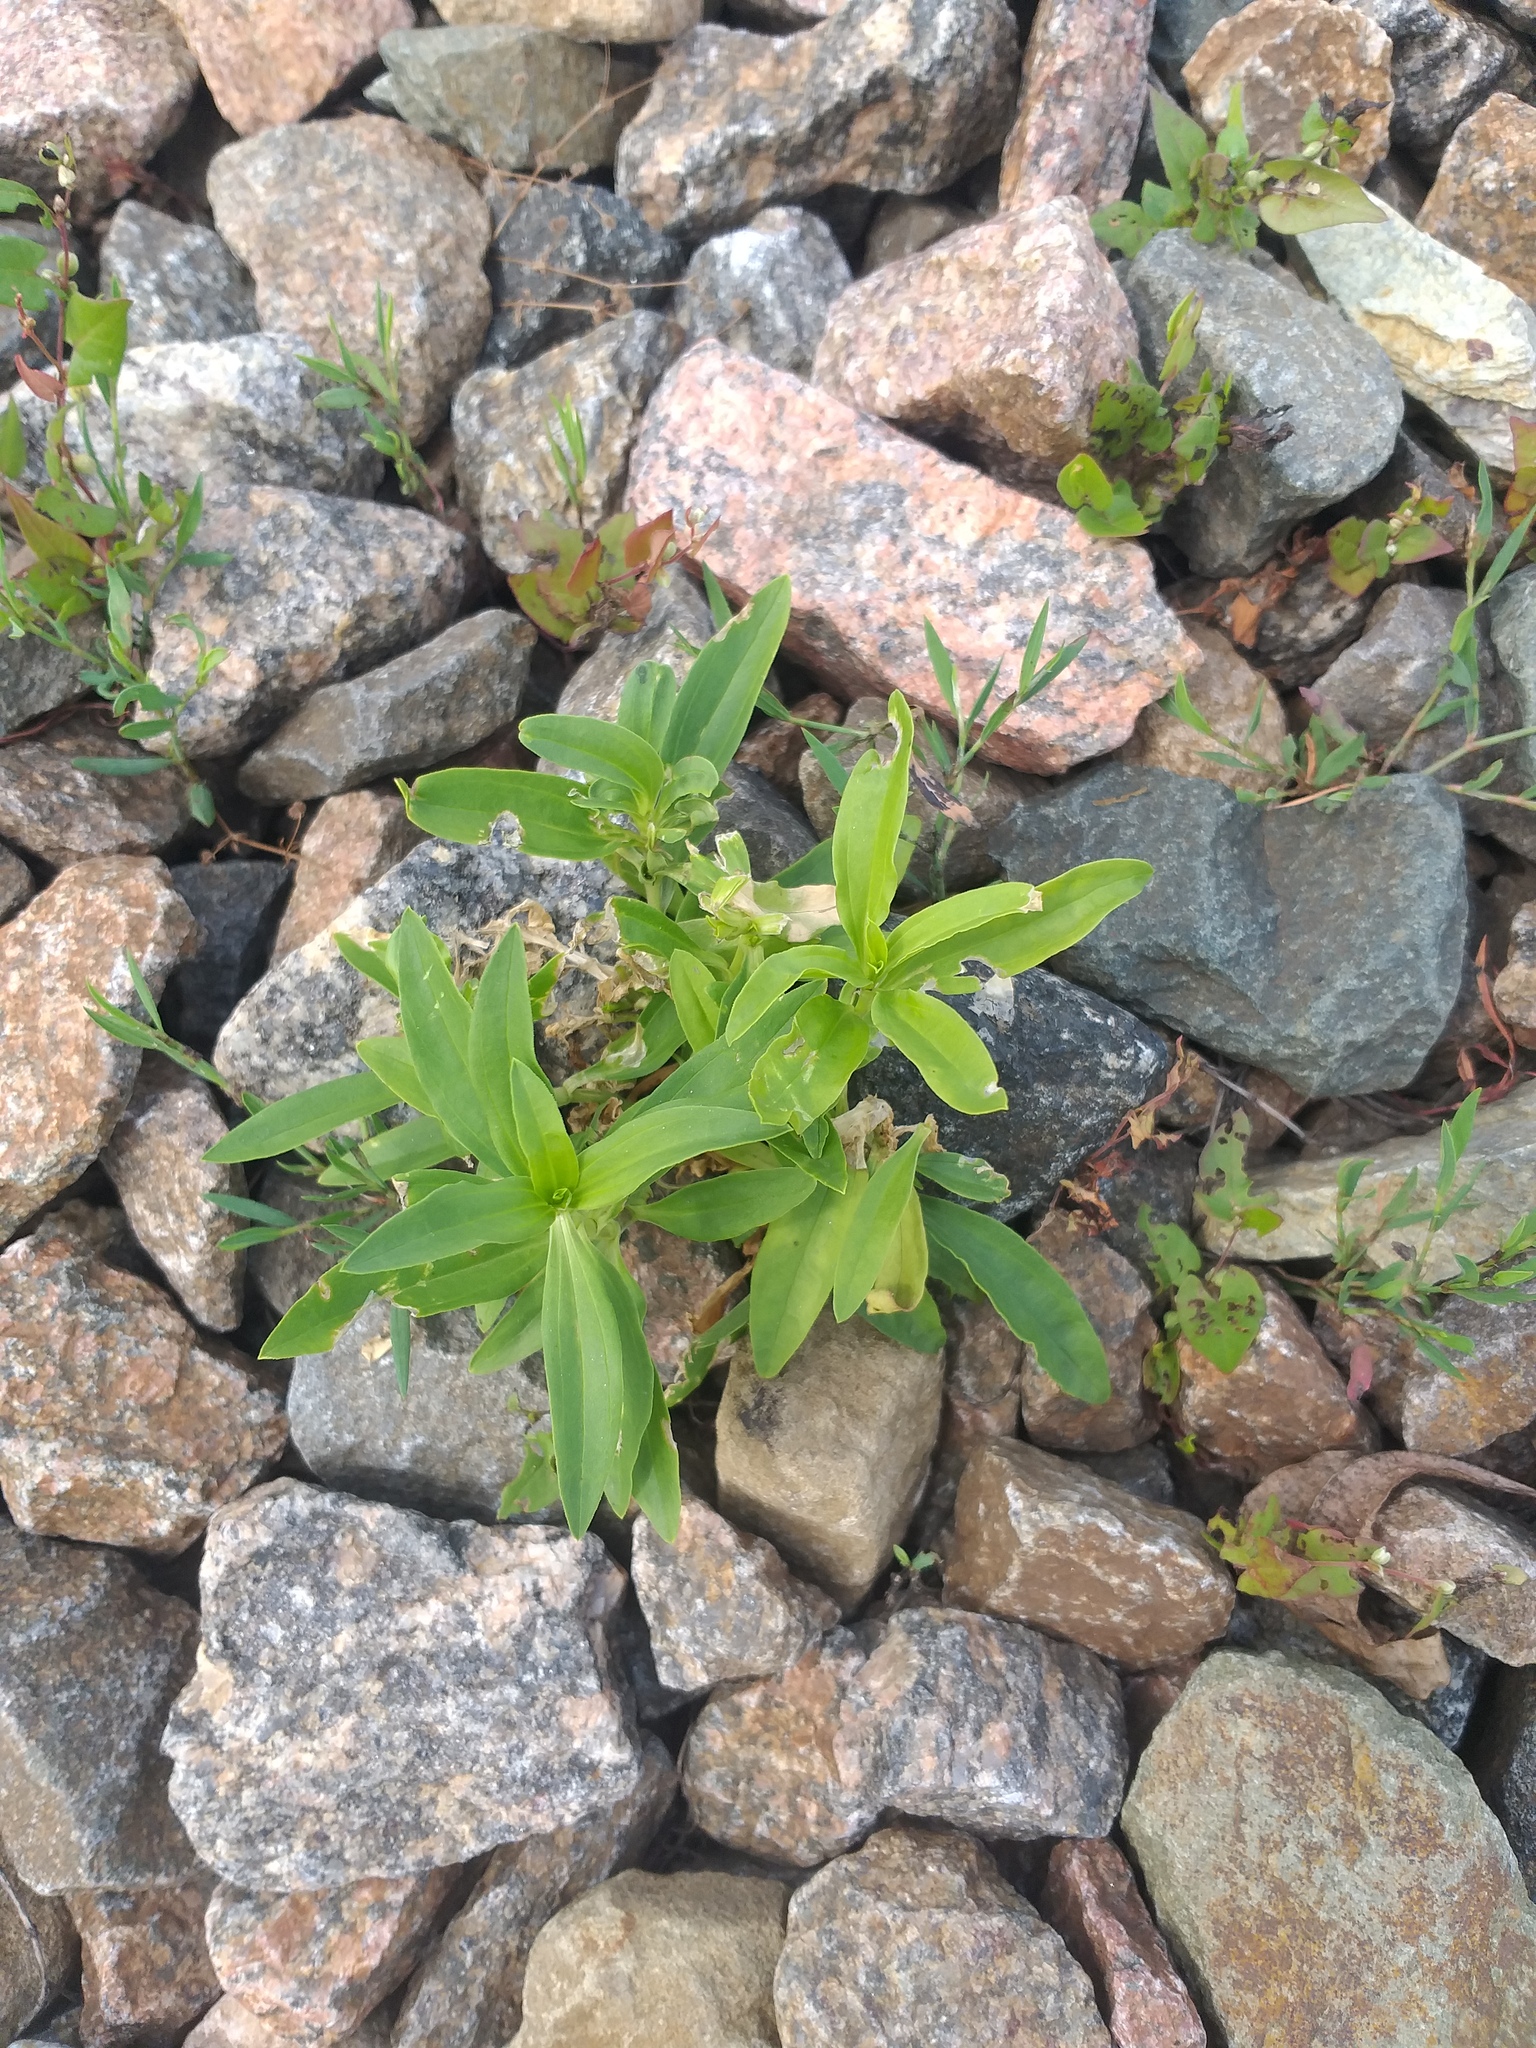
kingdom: Plantae
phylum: Tracheophyta
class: Magnoliopsida
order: Caryophyllales
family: Caryophyllaceae
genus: Saponaria
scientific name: Saponaria officinalis
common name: Soapwort
